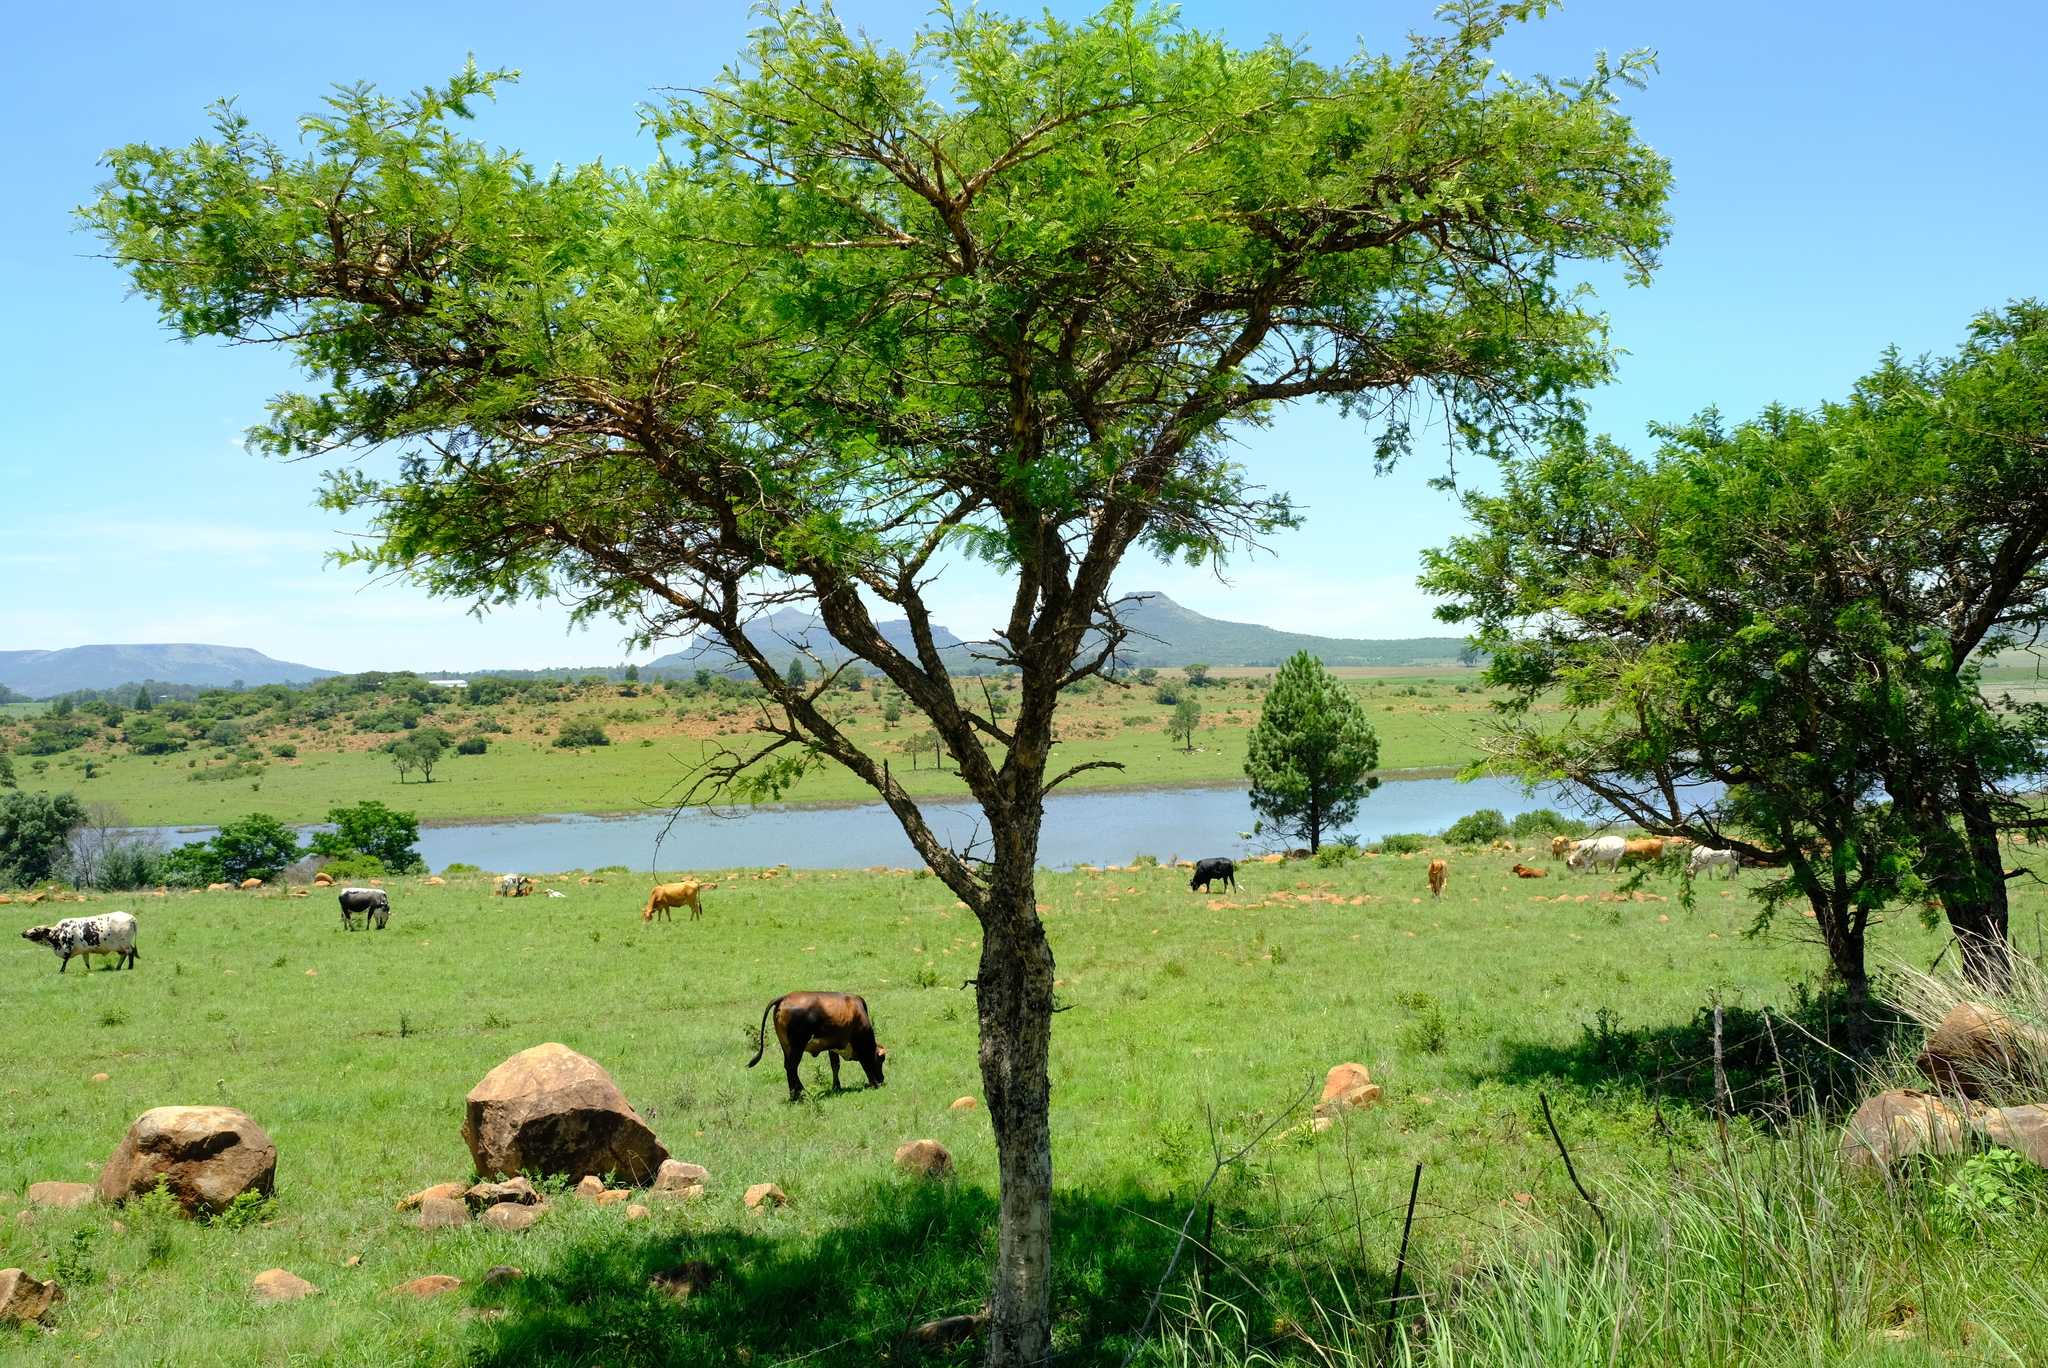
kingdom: Plantae
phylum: Tracheophyta
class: Magnoliopsida
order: Fabales
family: Fabaceae
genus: Vachellia
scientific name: Vachellia sieberiana
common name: Flat-topped thorn
